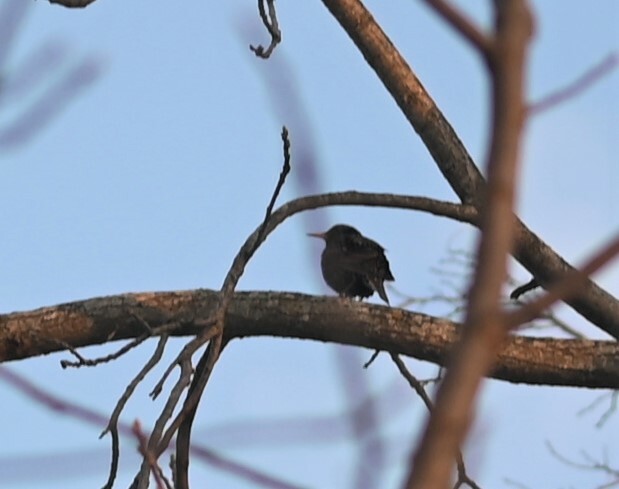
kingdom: Animalia
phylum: Chordata
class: Aves
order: Passeriformes
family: Sturnidae
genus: Sturnus
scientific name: Sturnus vulgaris
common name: Common starling
